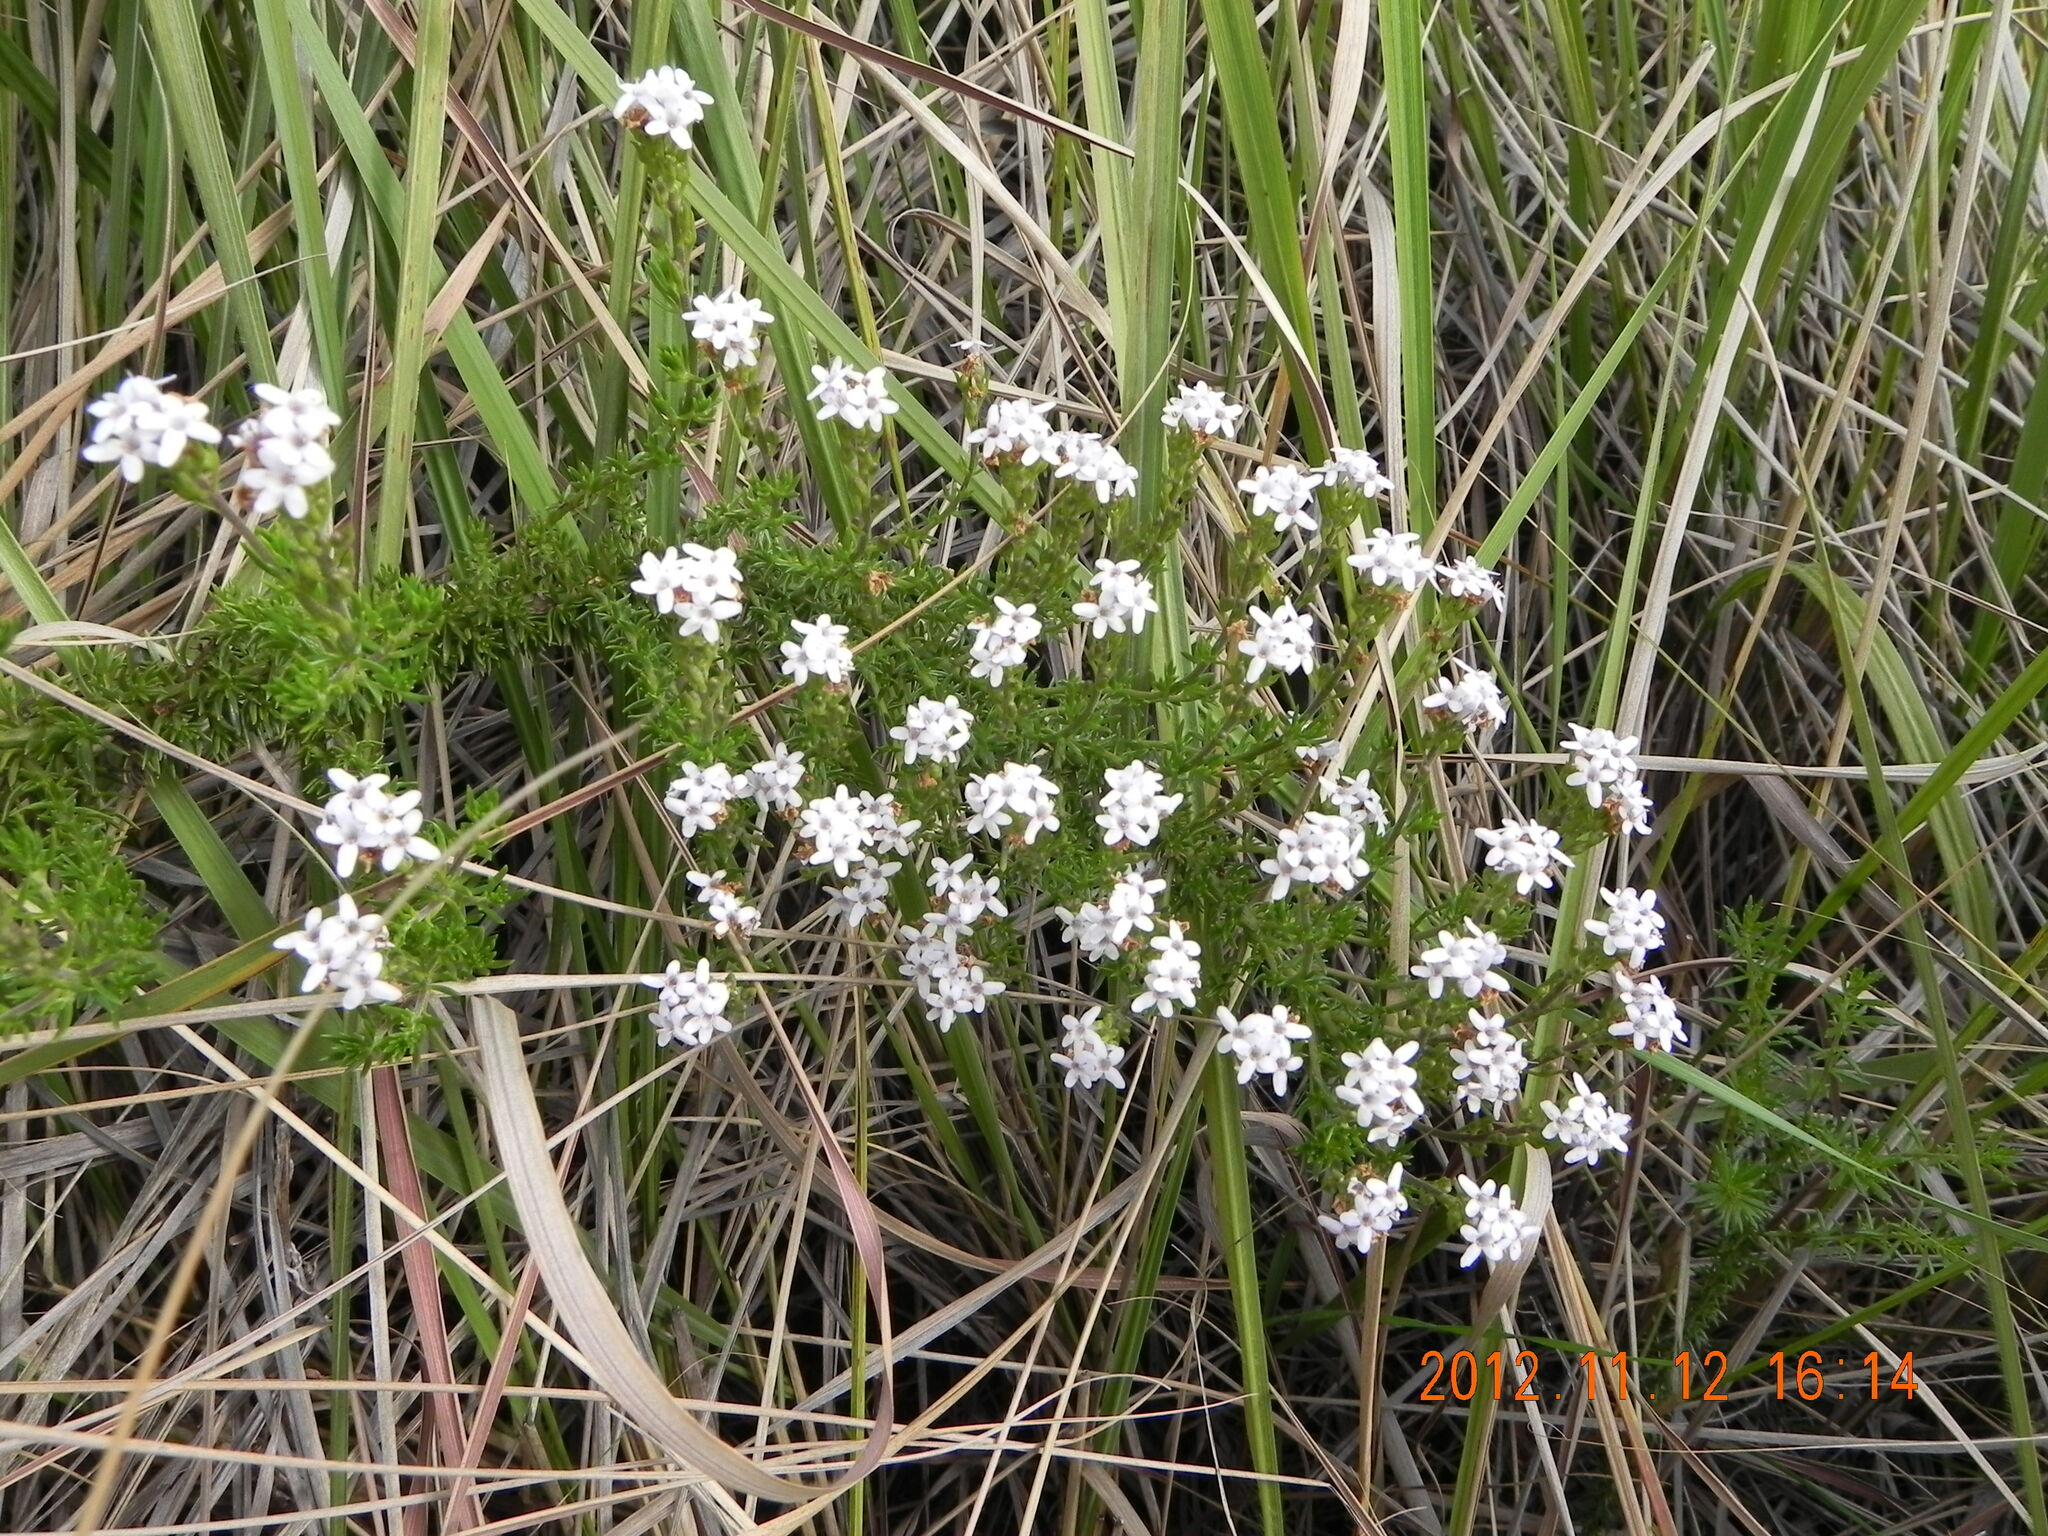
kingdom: Plantae
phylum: Tracheophyta
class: Magnoliopsida
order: Lamiales
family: Scrophulariaceae
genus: Selago
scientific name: Selago densiflora
